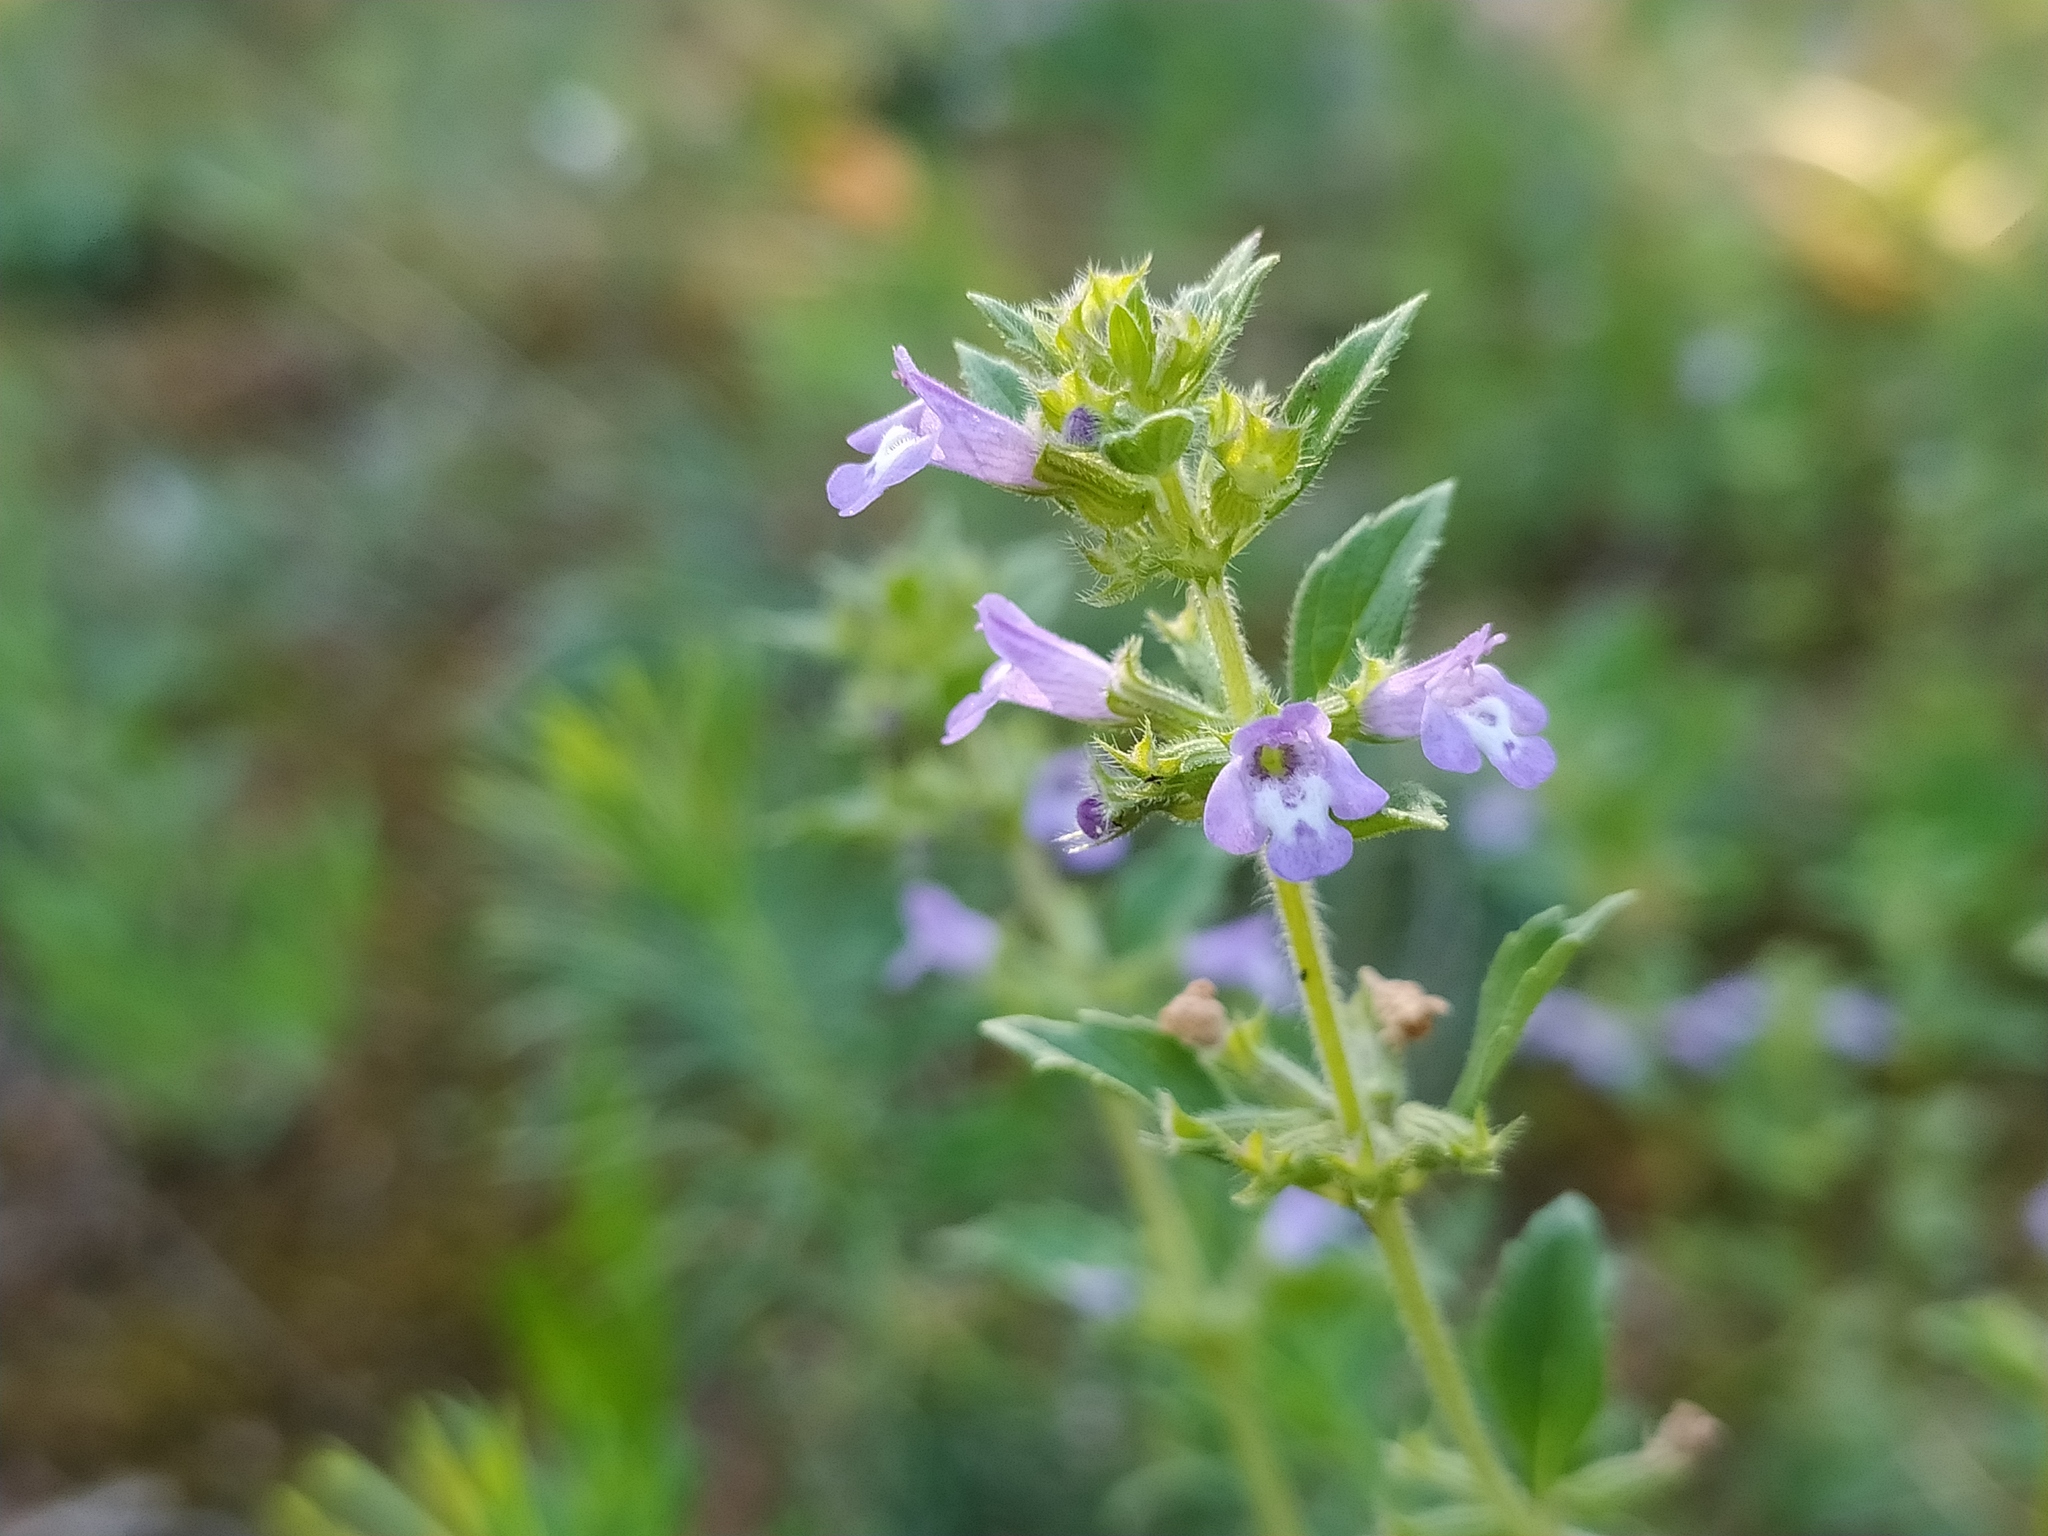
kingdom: Plantae
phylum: Tracheophyta
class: Magnoliopsida
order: Lamiales
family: Lamiaceae
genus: Clinopodium
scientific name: Clinopodium acinos
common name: Basil thyme
